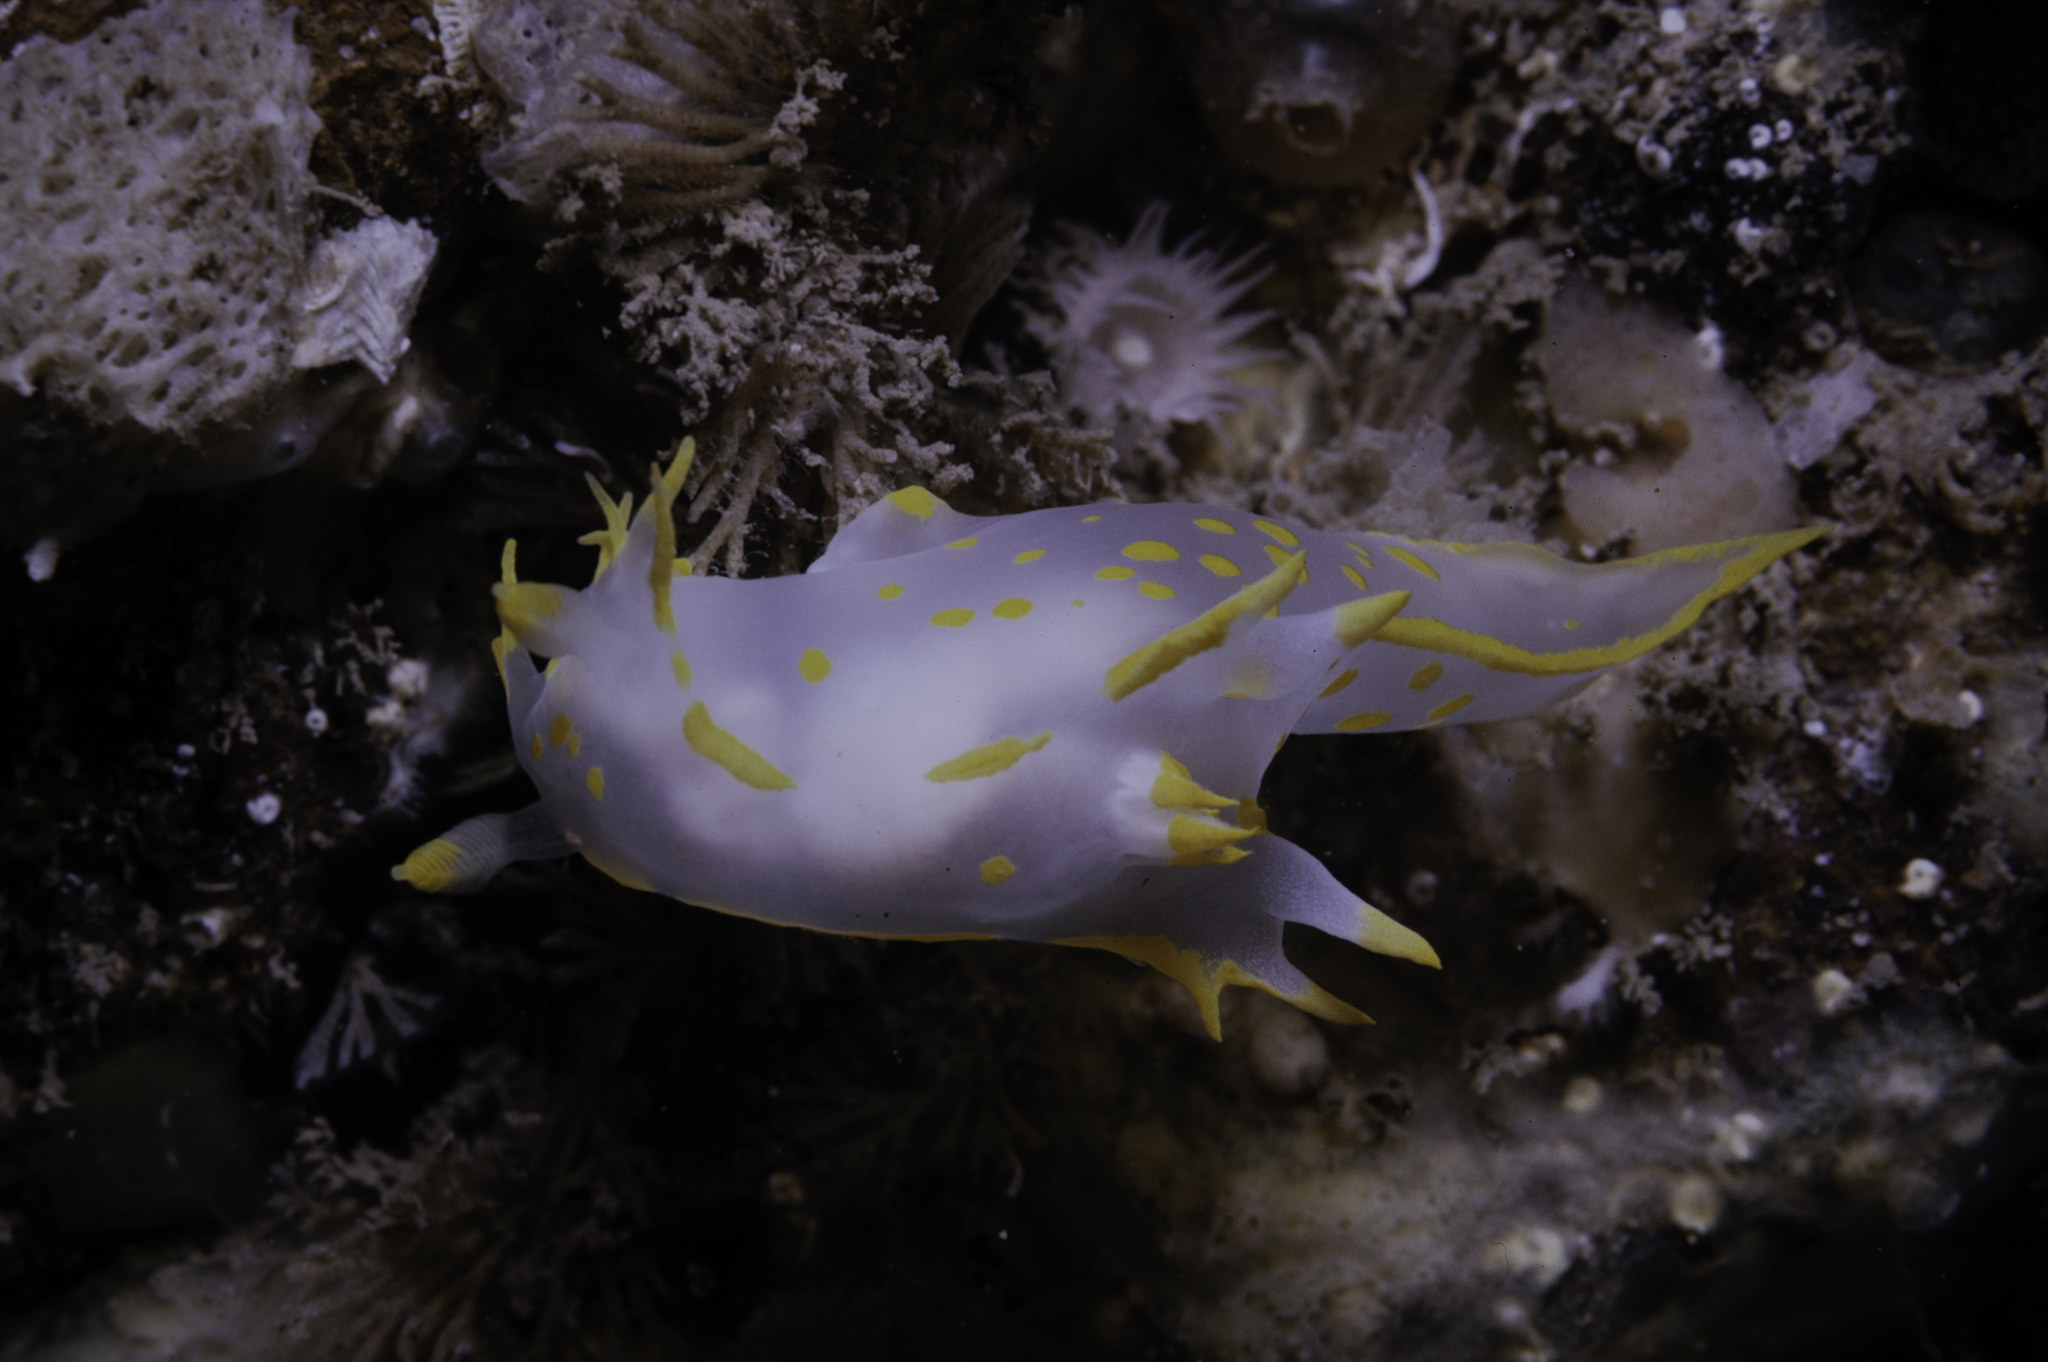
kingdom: Animalia
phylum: Mollusca
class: Gastropoda
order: Nudibranchia
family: Polyceridae
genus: Polycera
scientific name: Polycera faeroensis
